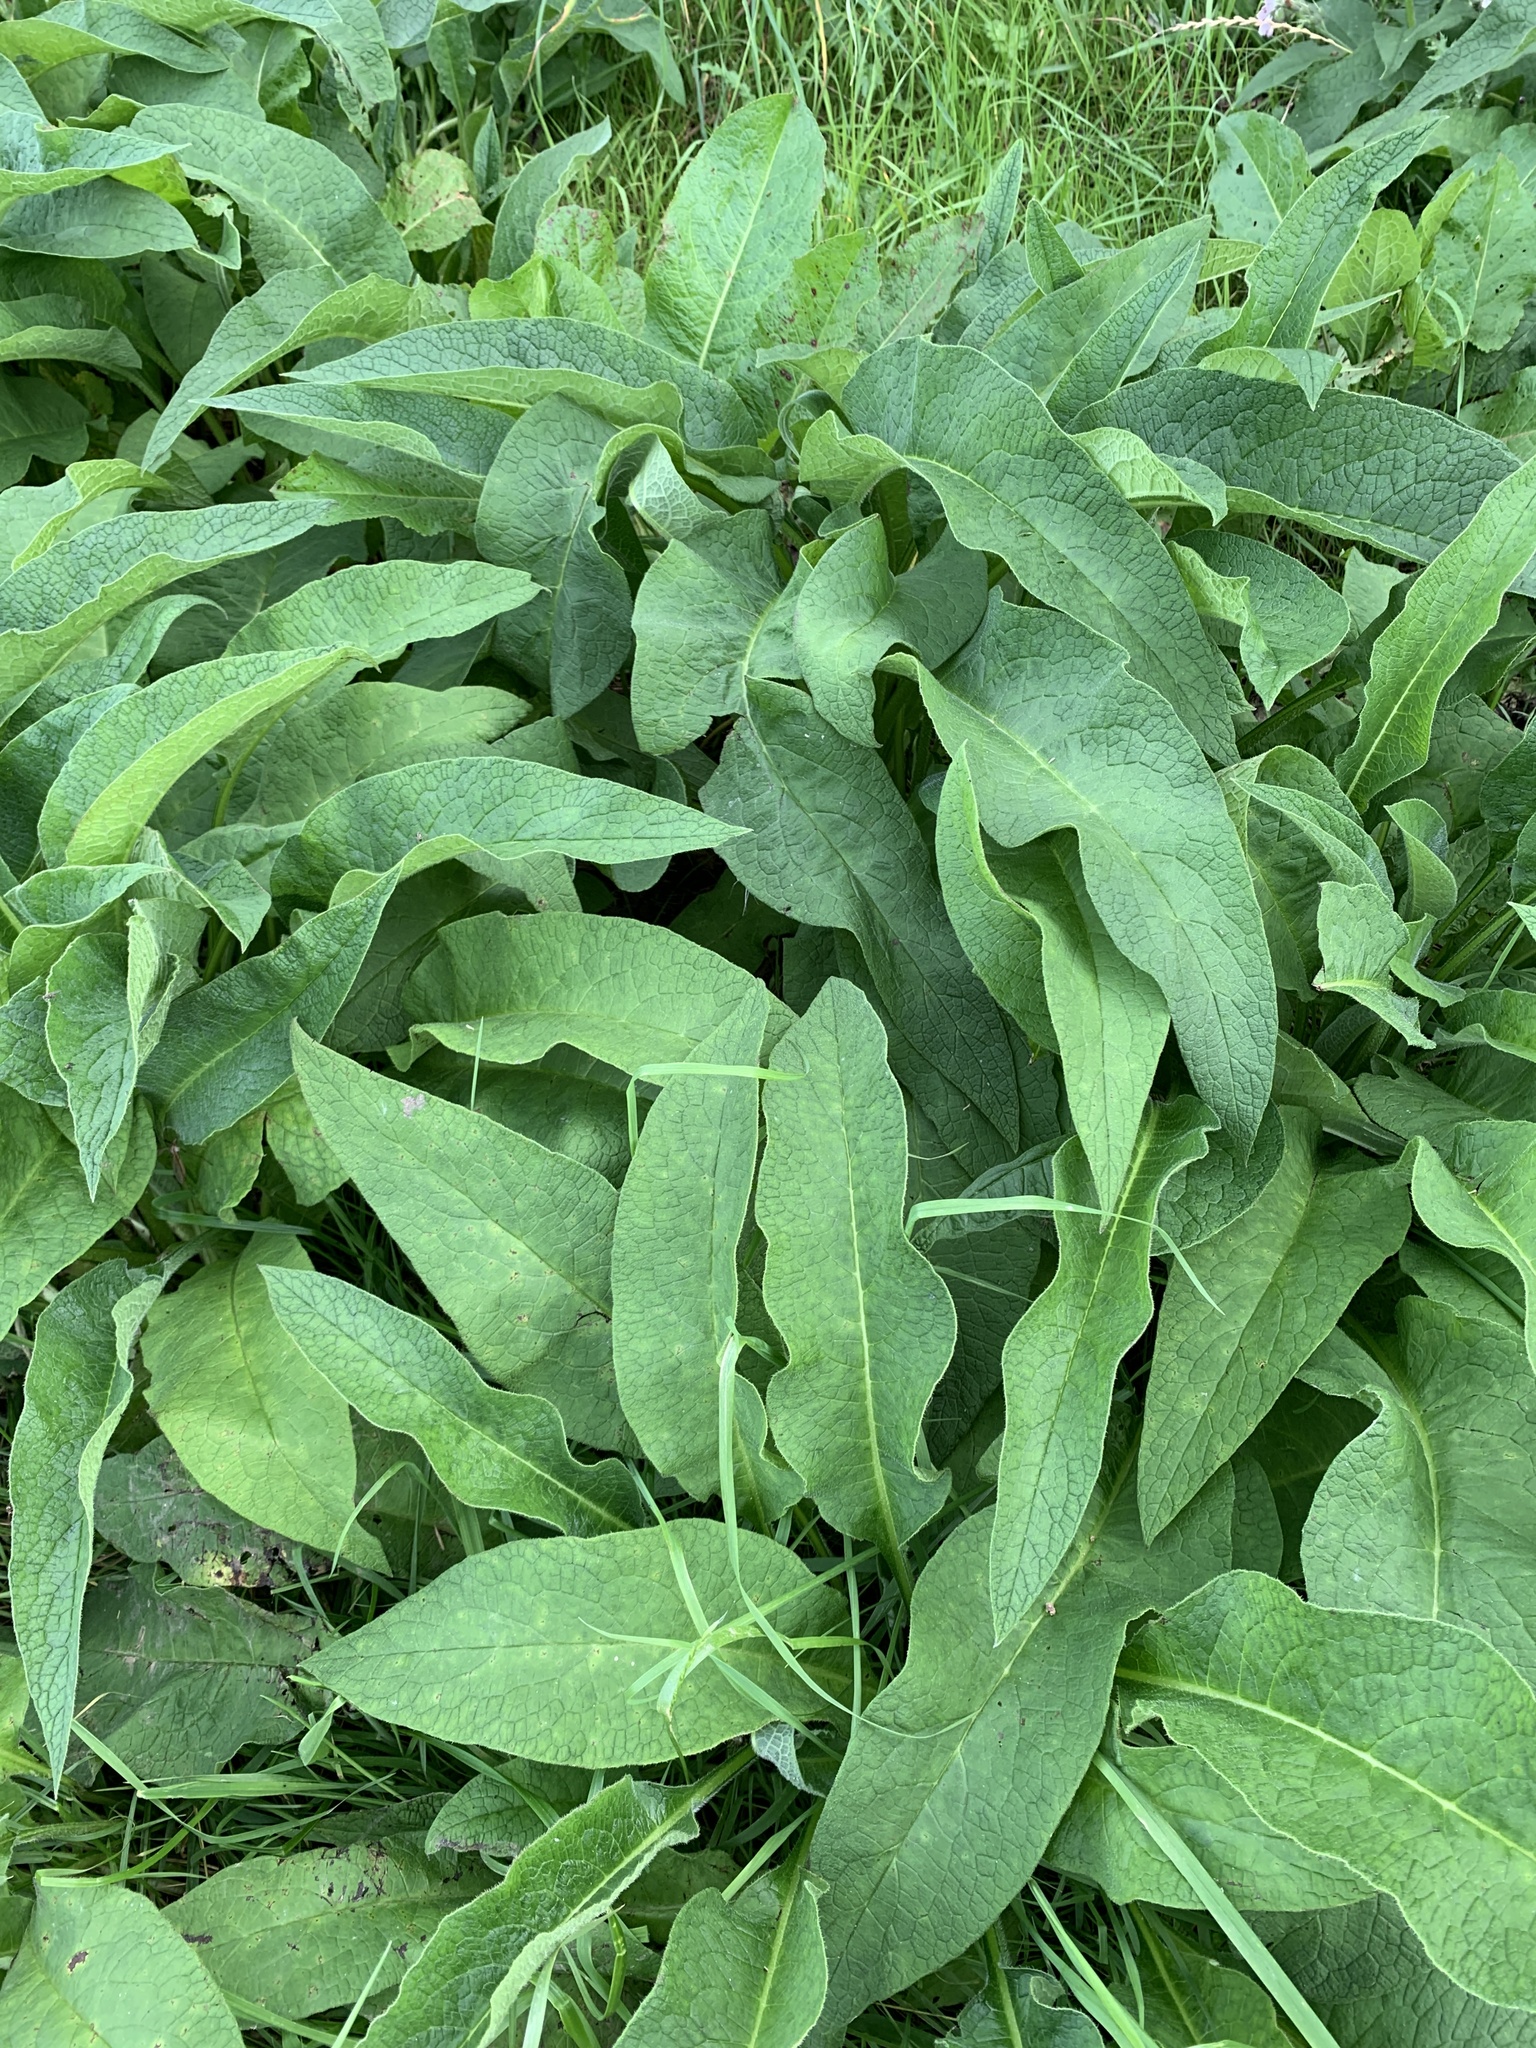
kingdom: Plantae
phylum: Tracheophyta
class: Magnoliopsida
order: Boraginales
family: Boraginaceae
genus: Symphytum
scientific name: Symphytum officinale
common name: Common comfrey
